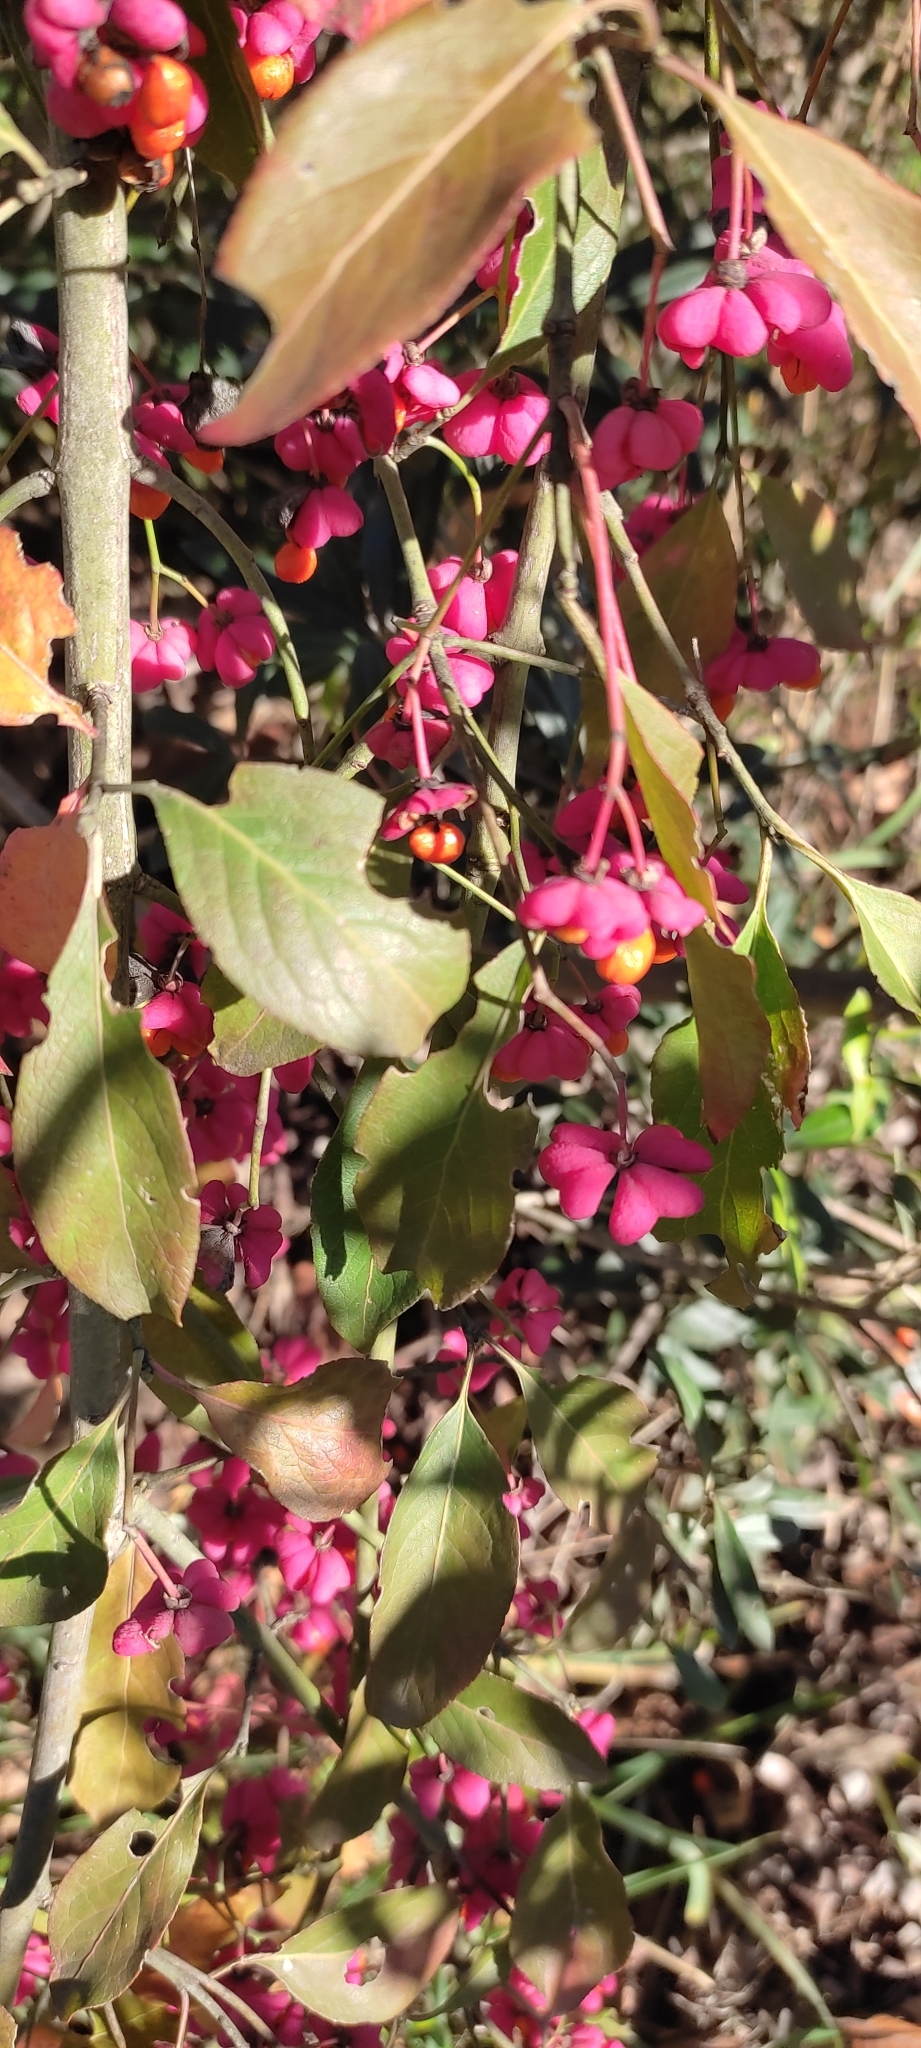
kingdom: Plantae
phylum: Tracheophyta
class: Magnoliopsida
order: Celastrales
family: Celastraceae
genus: Euonymus
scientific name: Euonymus europaeus
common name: Spindle
